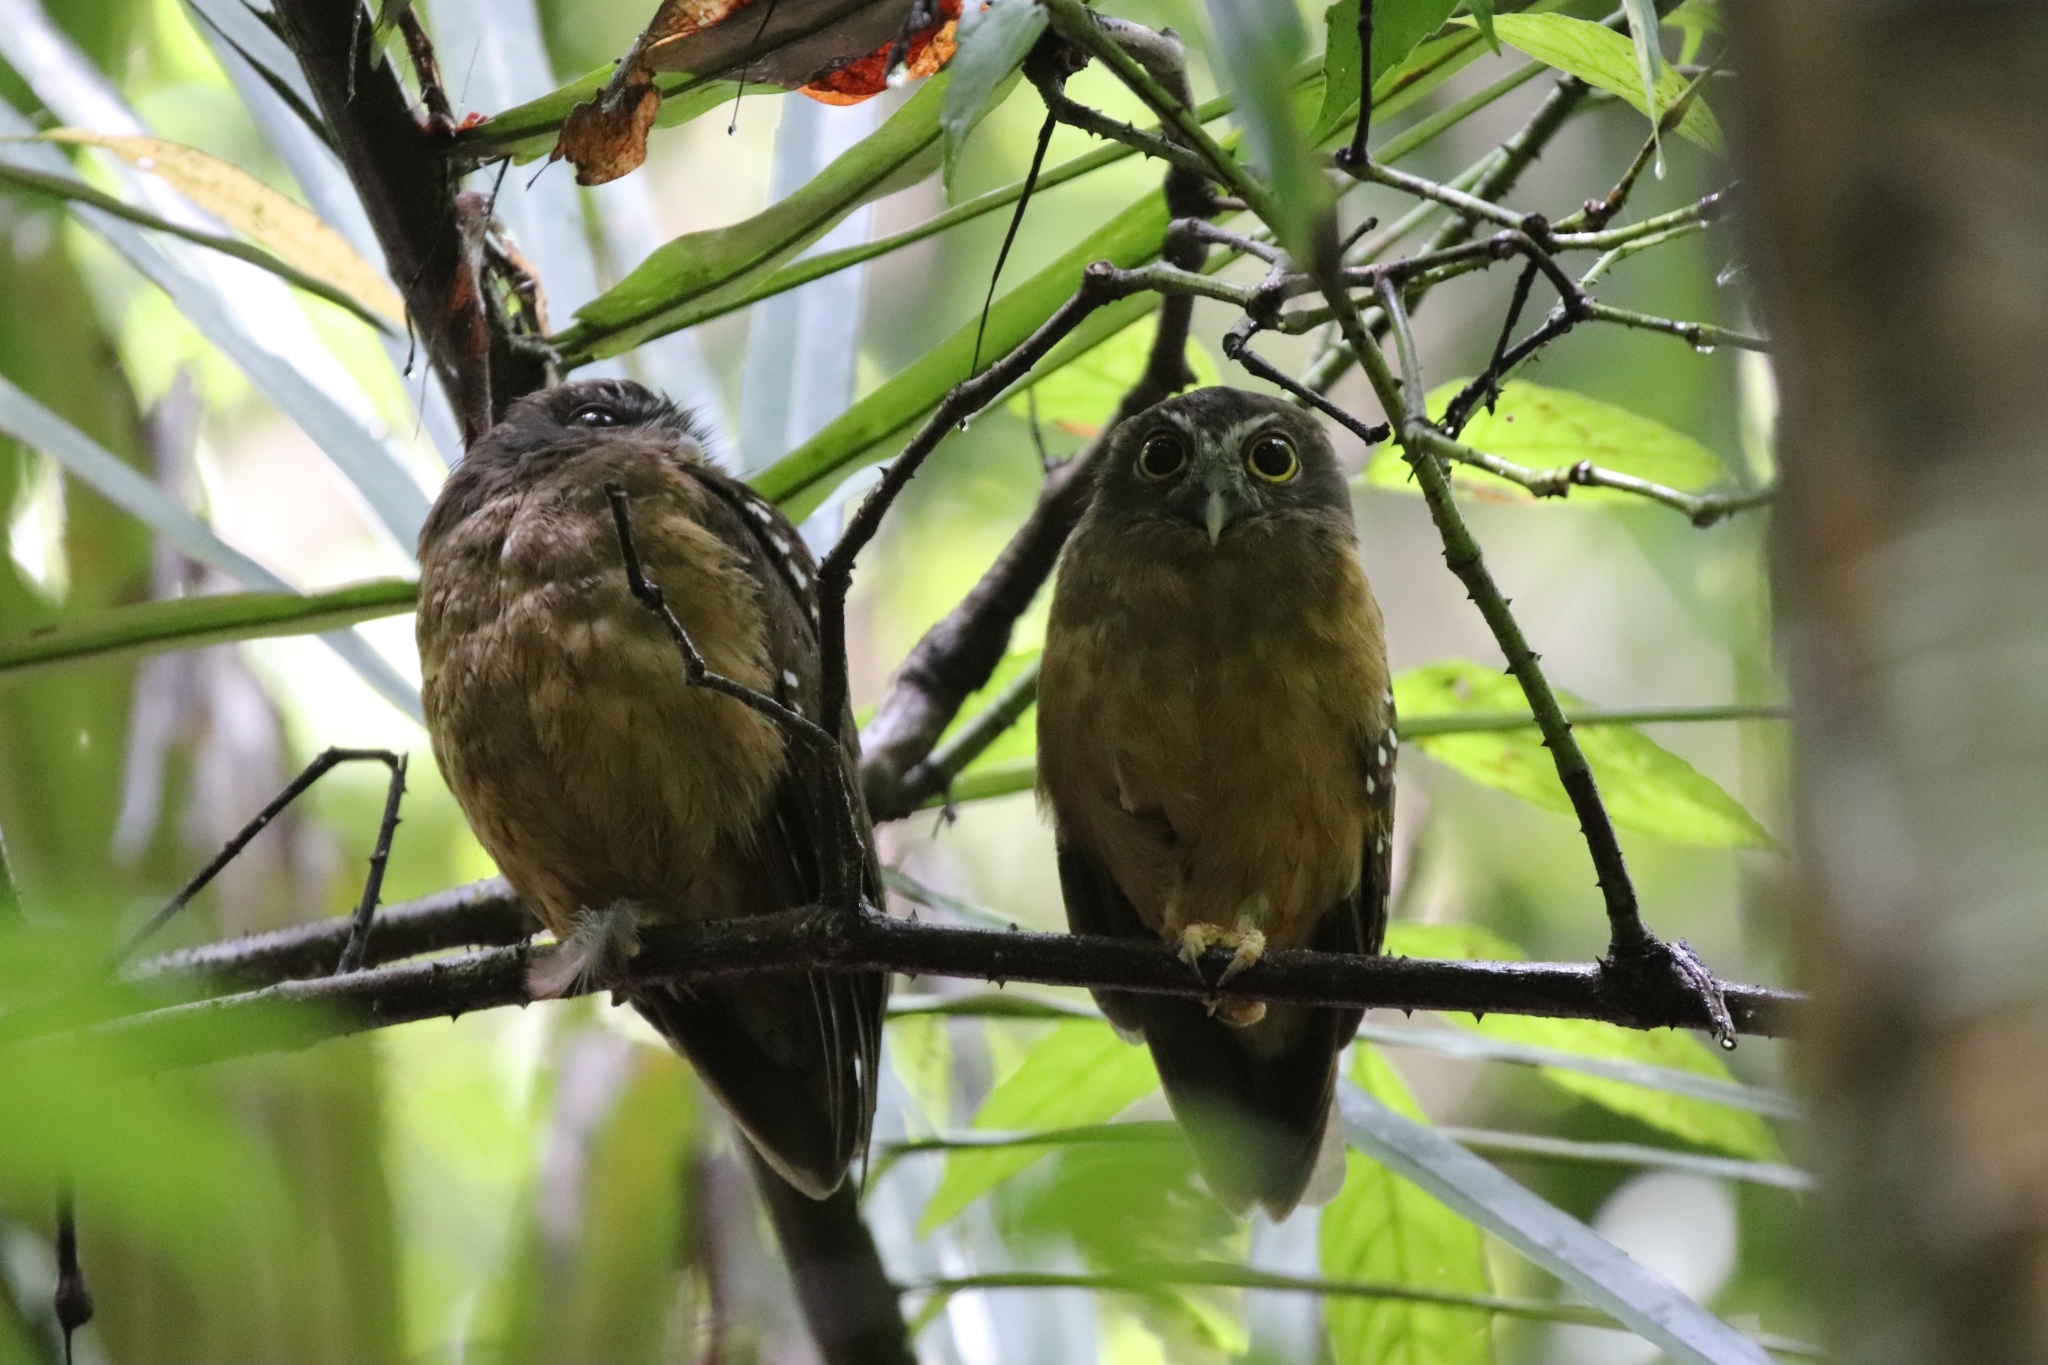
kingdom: Animalia
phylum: Chordata
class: Aves
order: Strigiformes
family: Strigidae
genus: Ninox
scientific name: Ninox ochracea
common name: Ochre-bellied boobook
